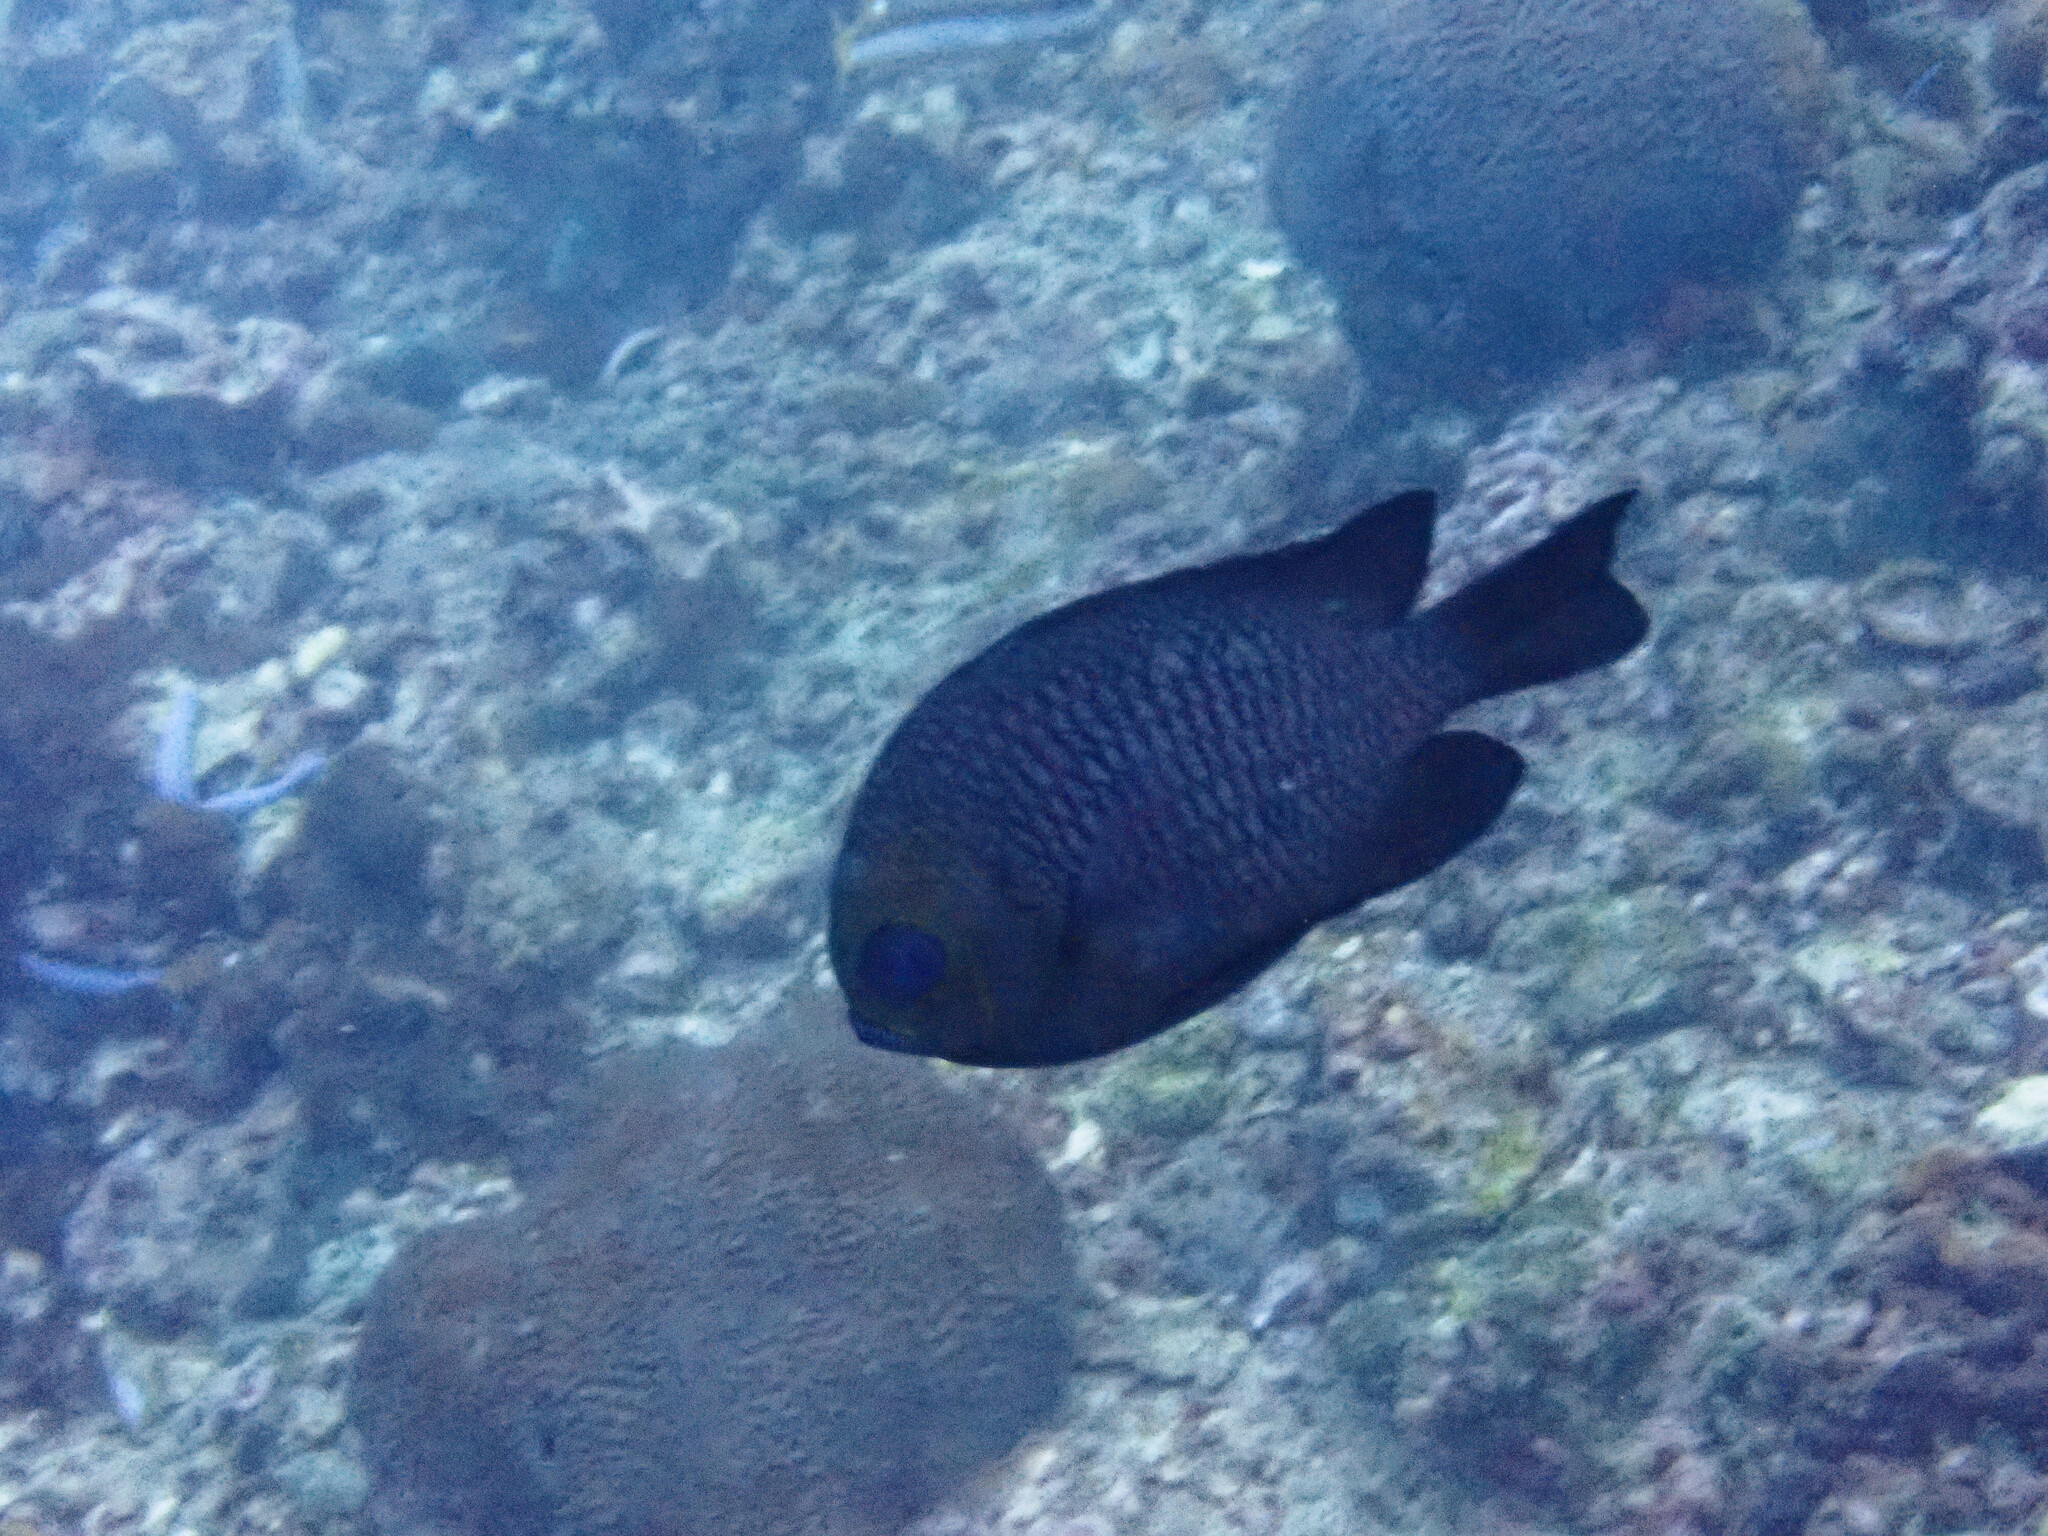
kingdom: Animalia
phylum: Chordata
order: Perciformes
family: Pomacentridae
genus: Dascyllus
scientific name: Dascyllus trimaculatus
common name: Threespot dascyllus
